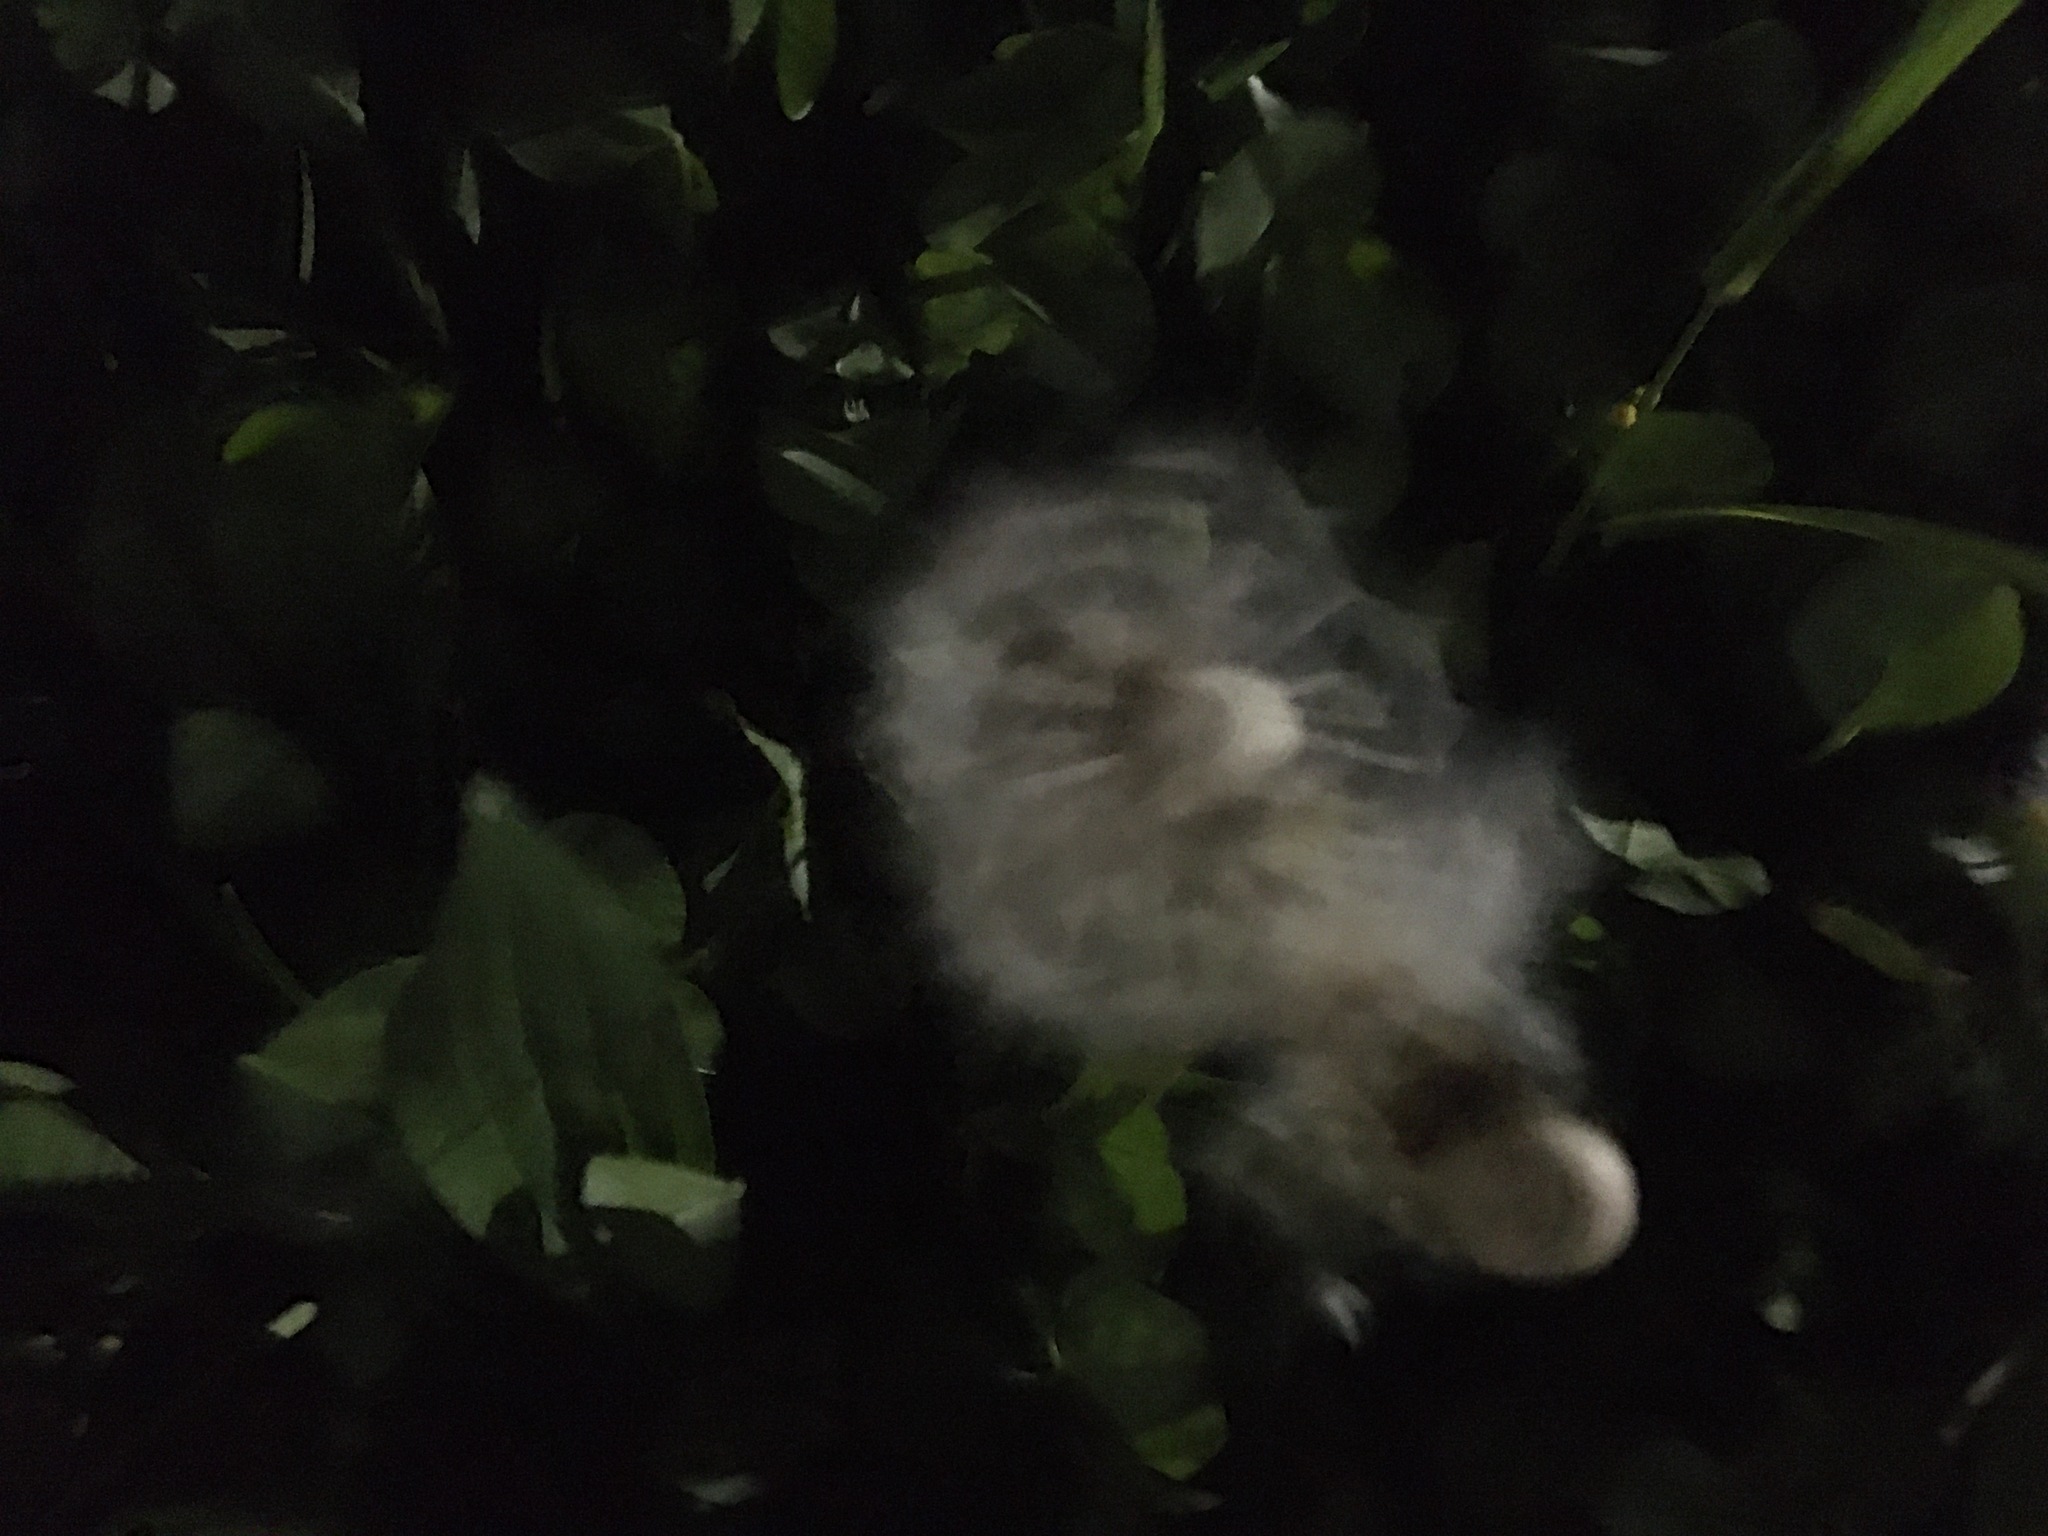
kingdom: Plantae
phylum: Tracheophyta
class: Magnoliopsida
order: Asterales
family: Asteraceae
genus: Taraxacum
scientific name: Taraxacum officinale
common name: Common dandelion
